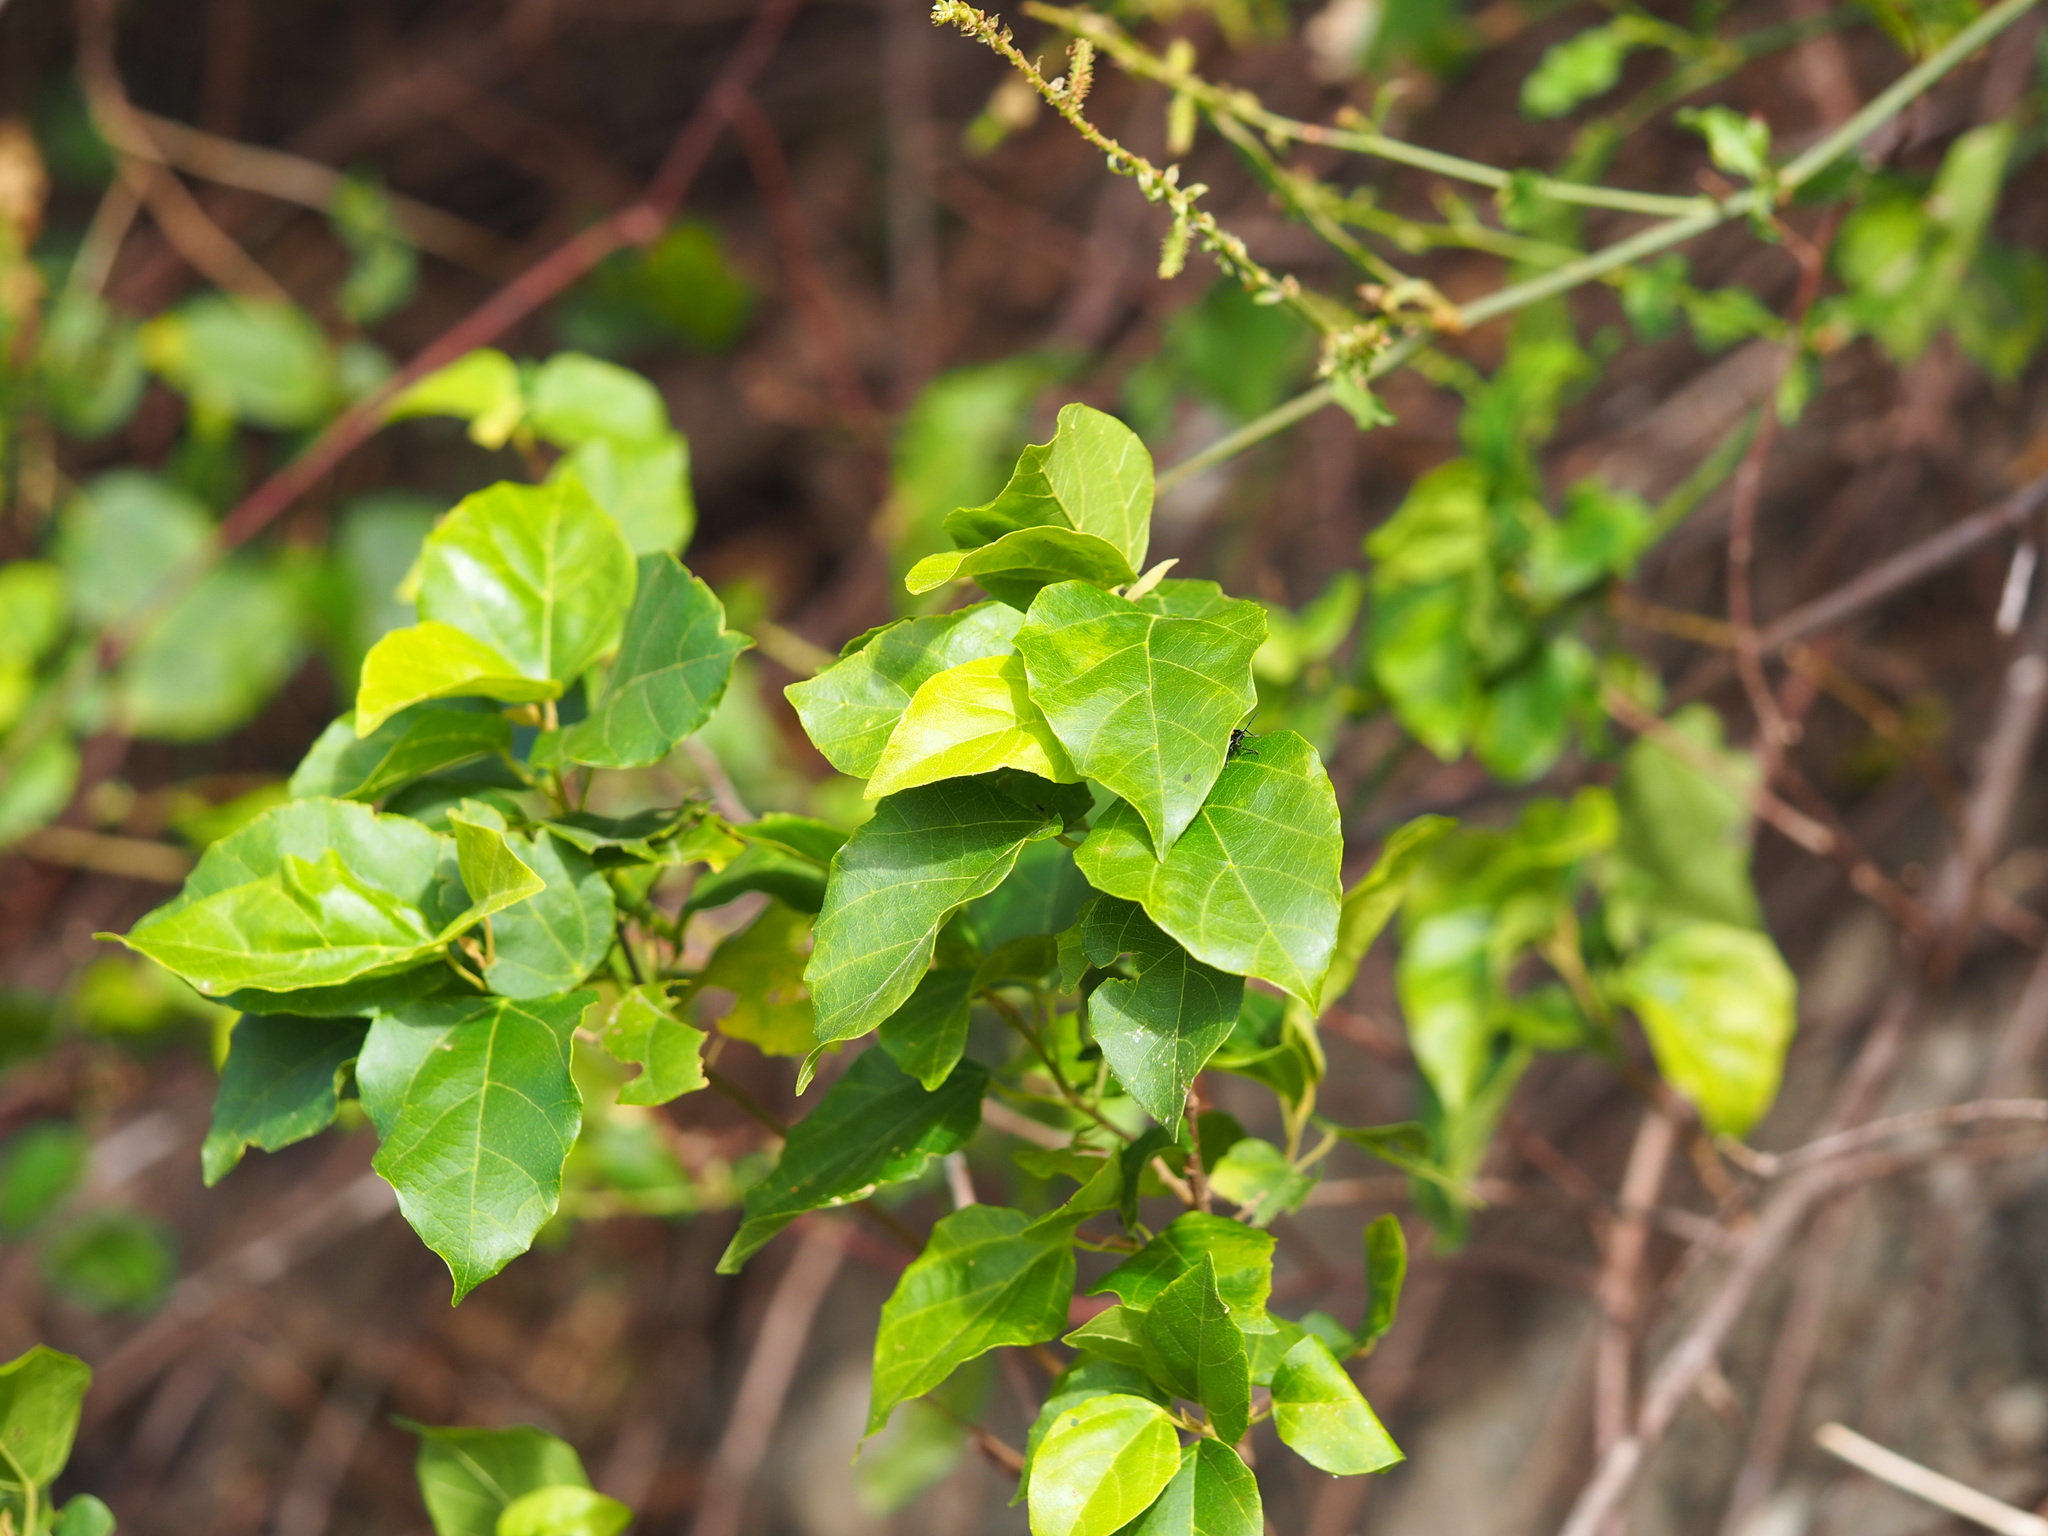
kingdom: Plantae
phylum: Tracheophyta
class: Magnoliopsida
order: Malpighiales
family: Euphorbiaceae
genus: Mallotus
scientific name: Mallotus repandus
